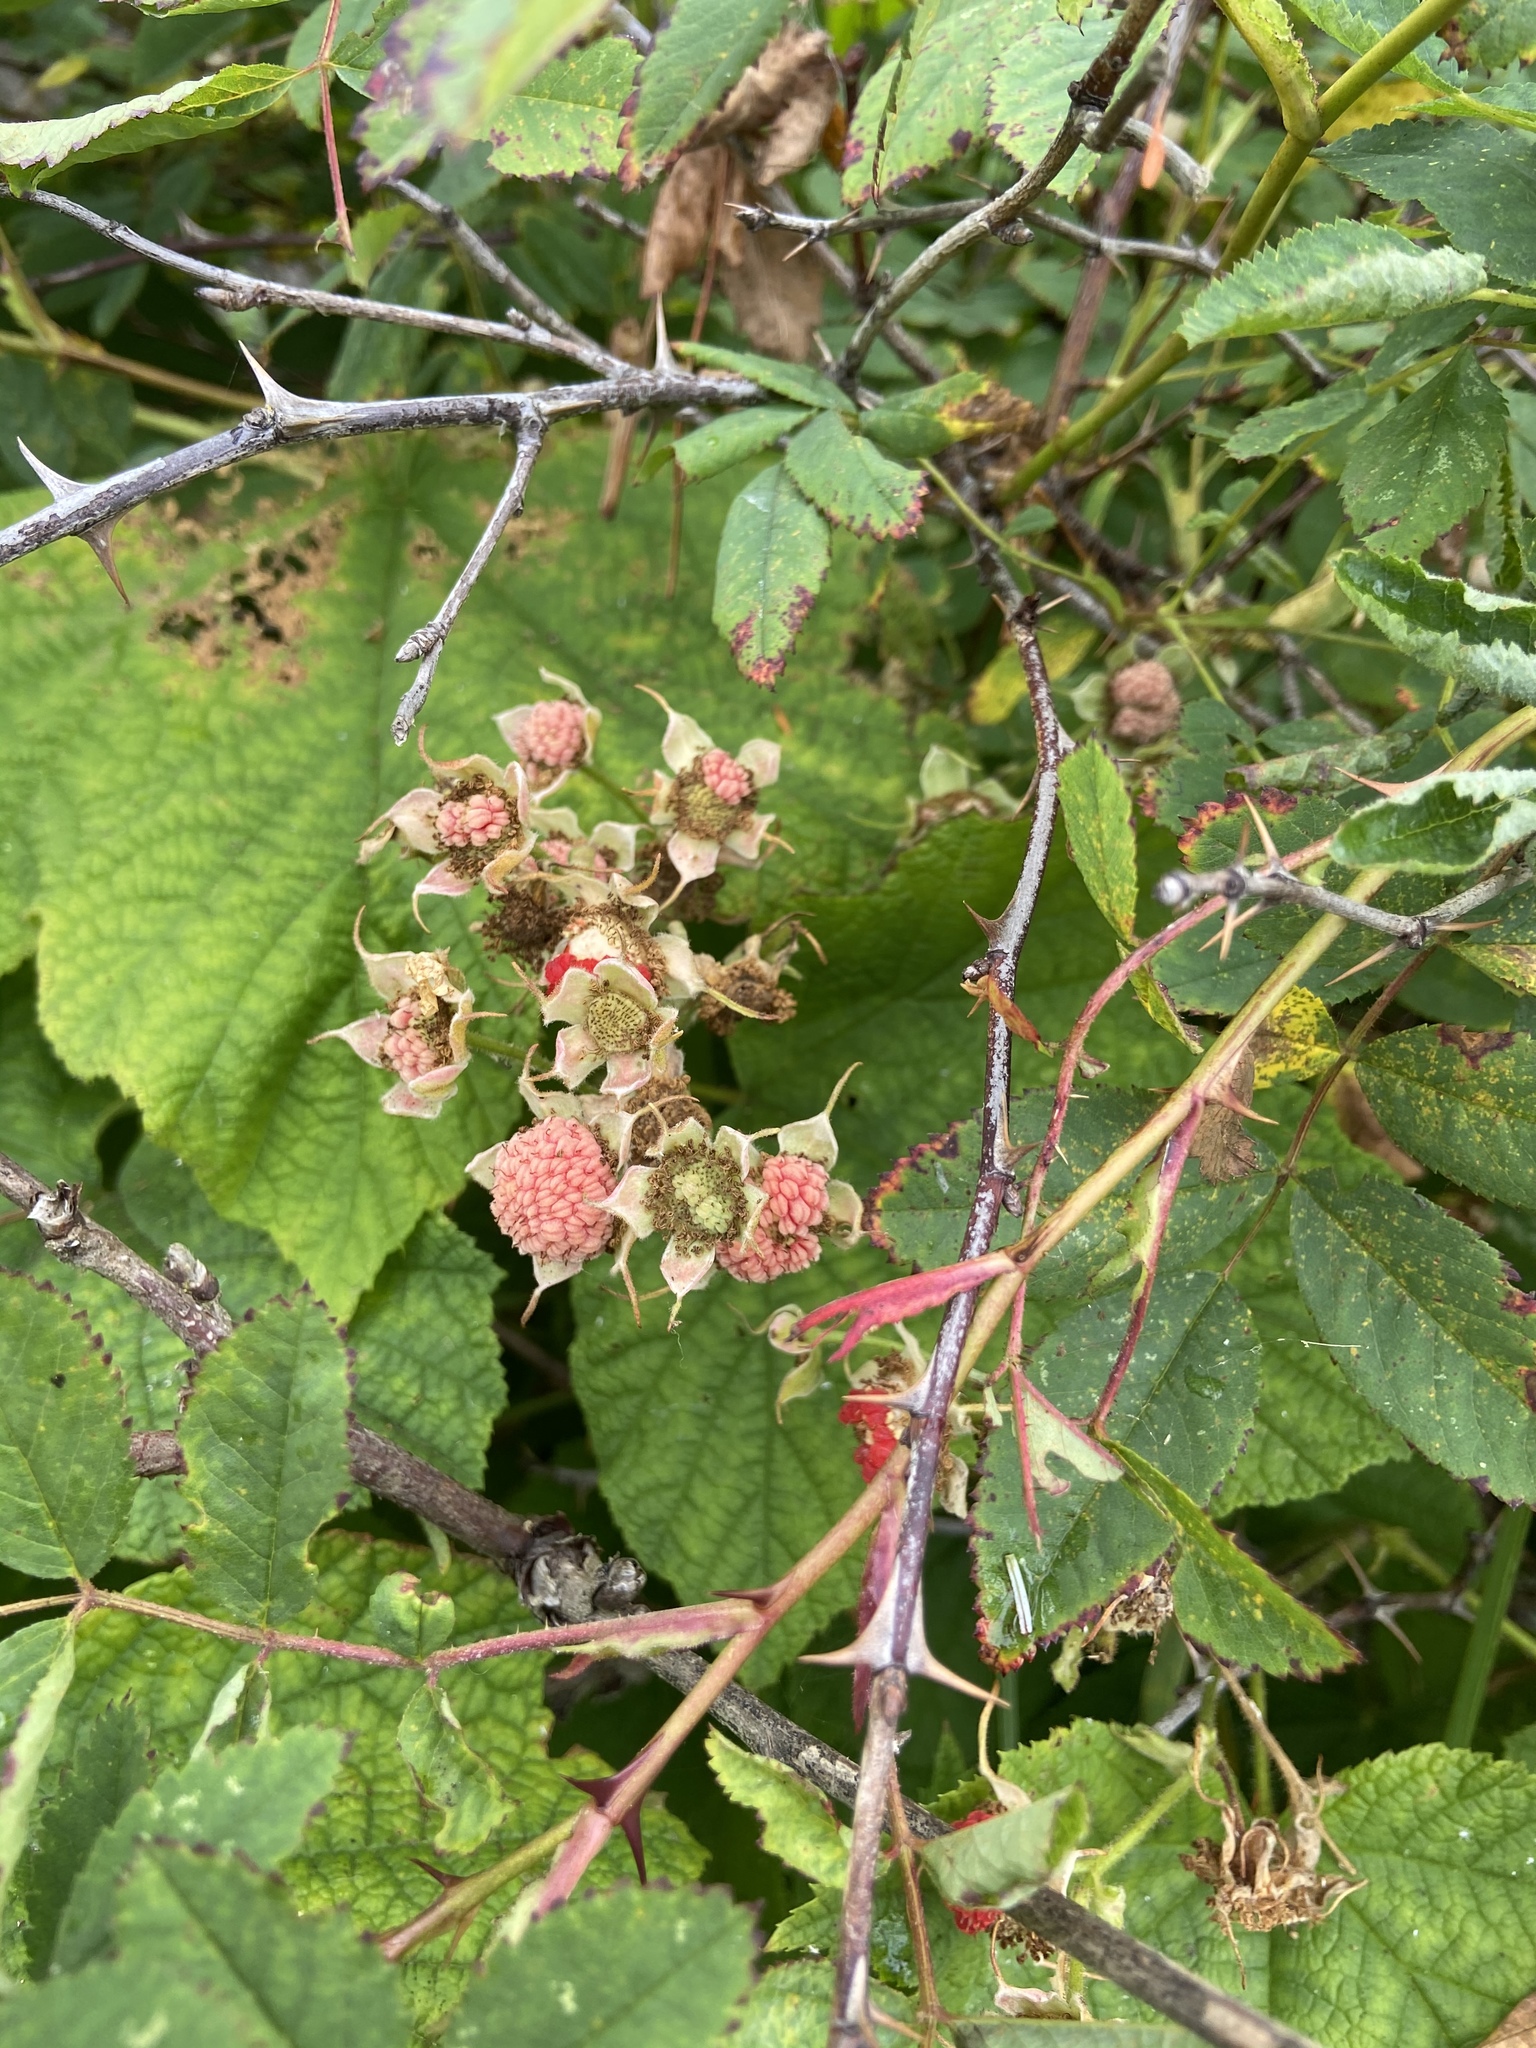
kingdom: Plantae
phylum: Tracheophyta
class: Magnoliopsida
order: Rosales
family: Rosaceae
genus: Rubus
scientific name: Rubus parviflorus
